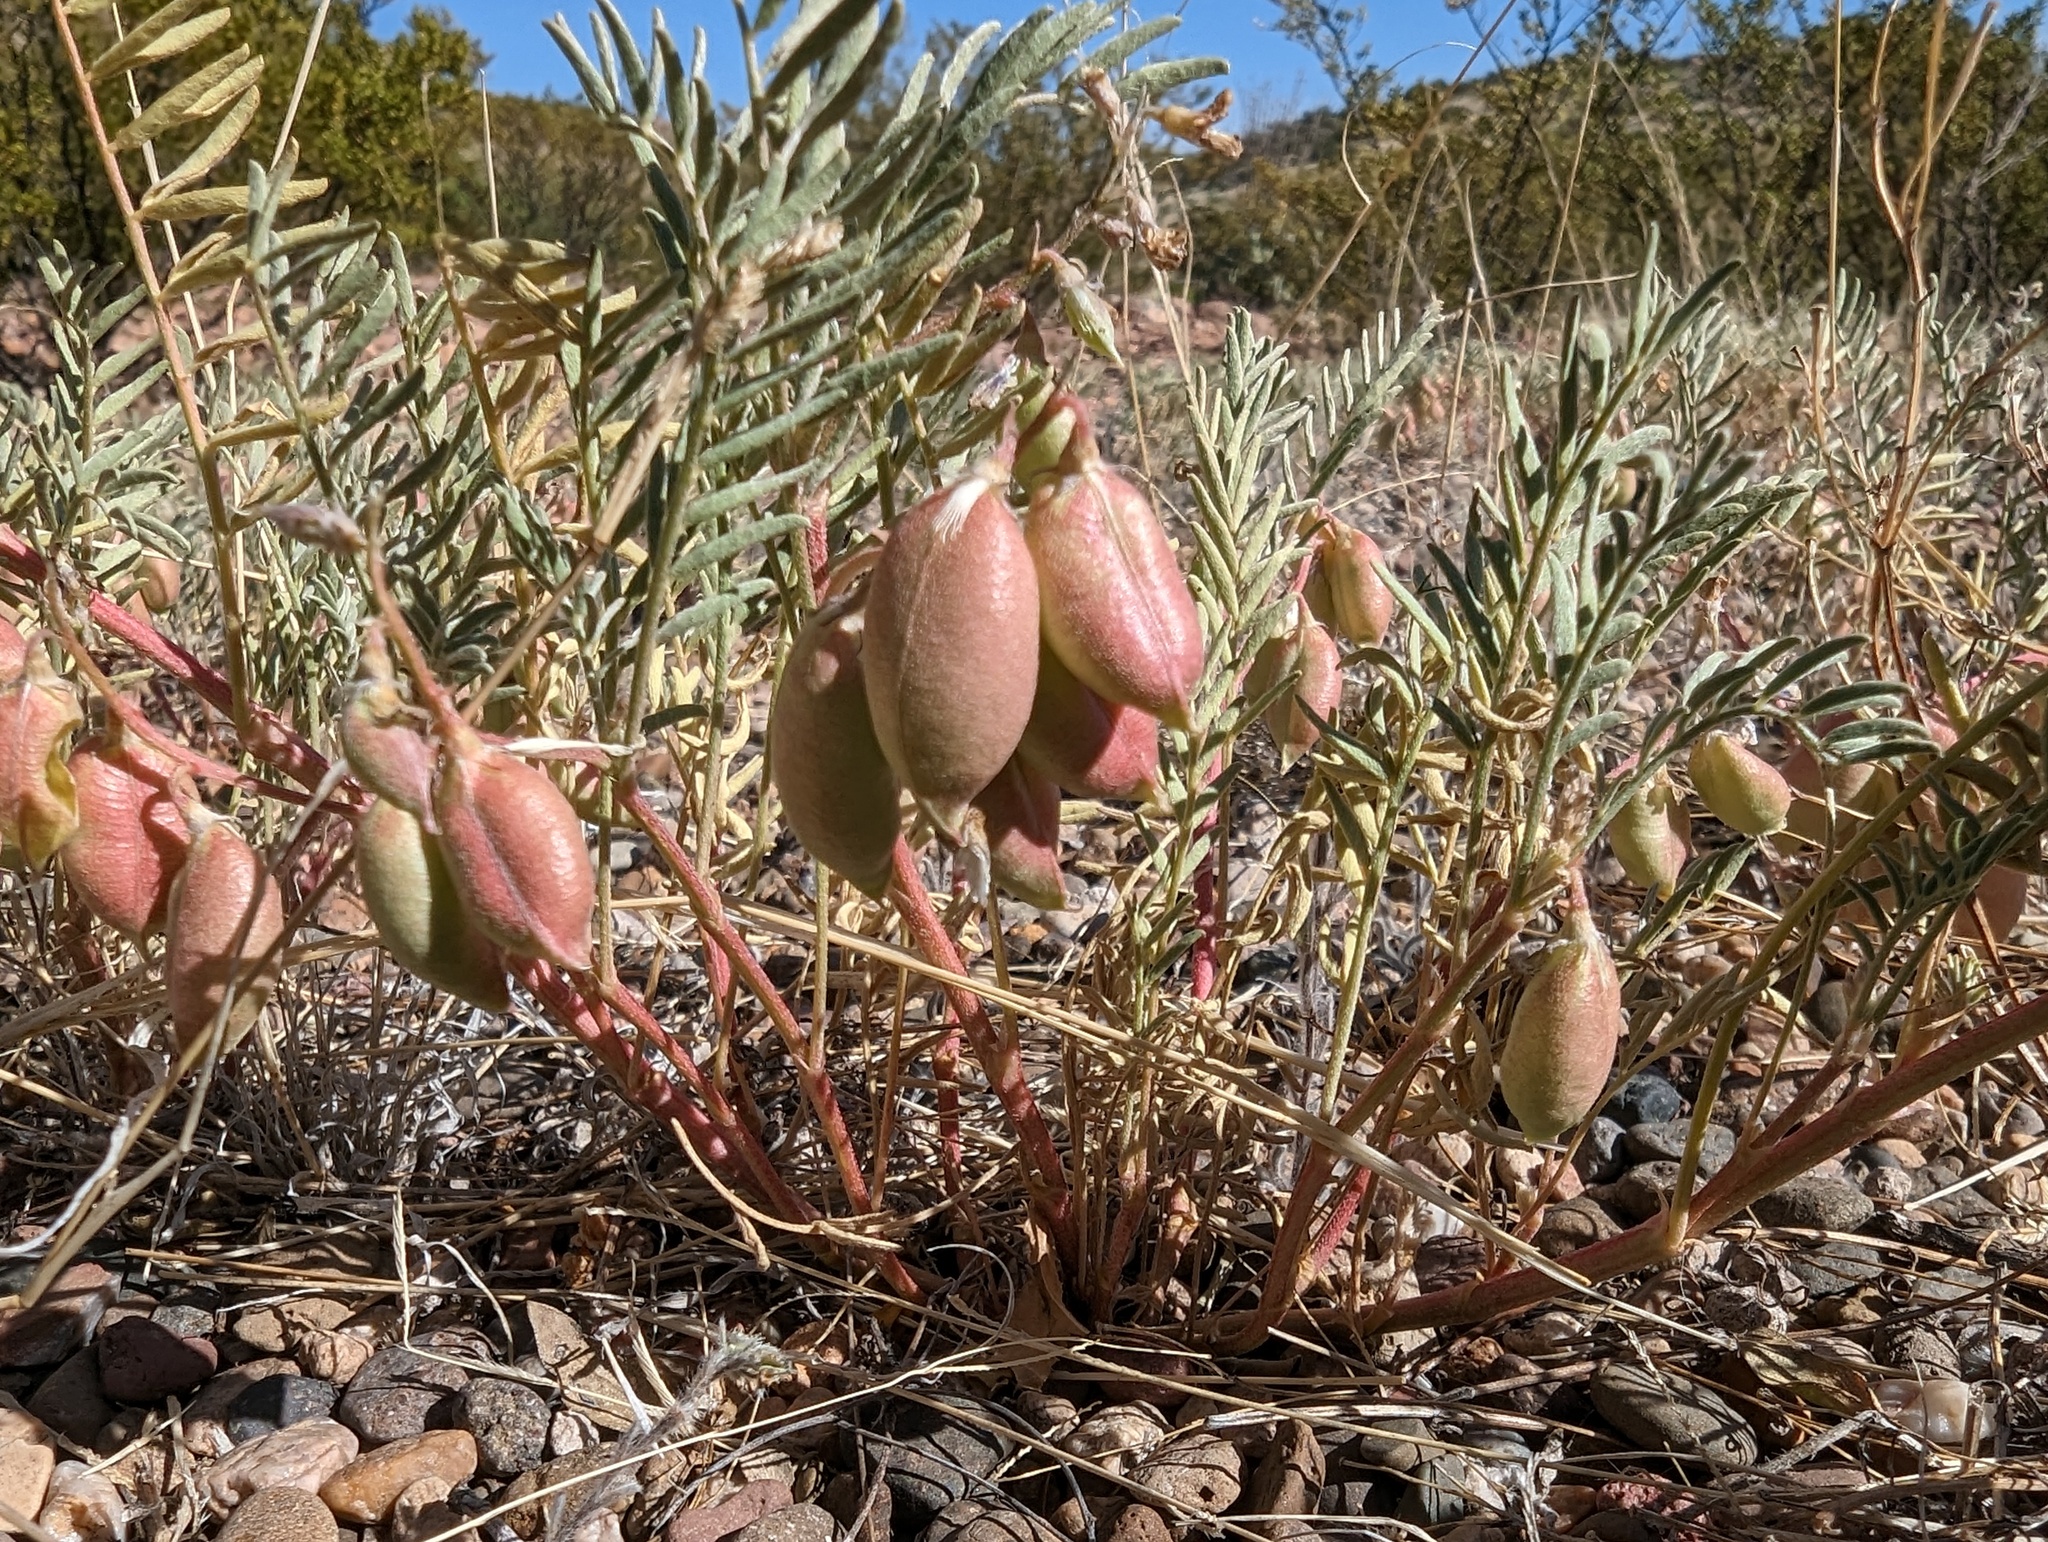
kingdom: Plantae
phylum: Tracheophyta
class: Magnoliopsida
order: Fabales
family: Fabaceae
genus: Astragalus
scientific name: Astragalus allochrous
